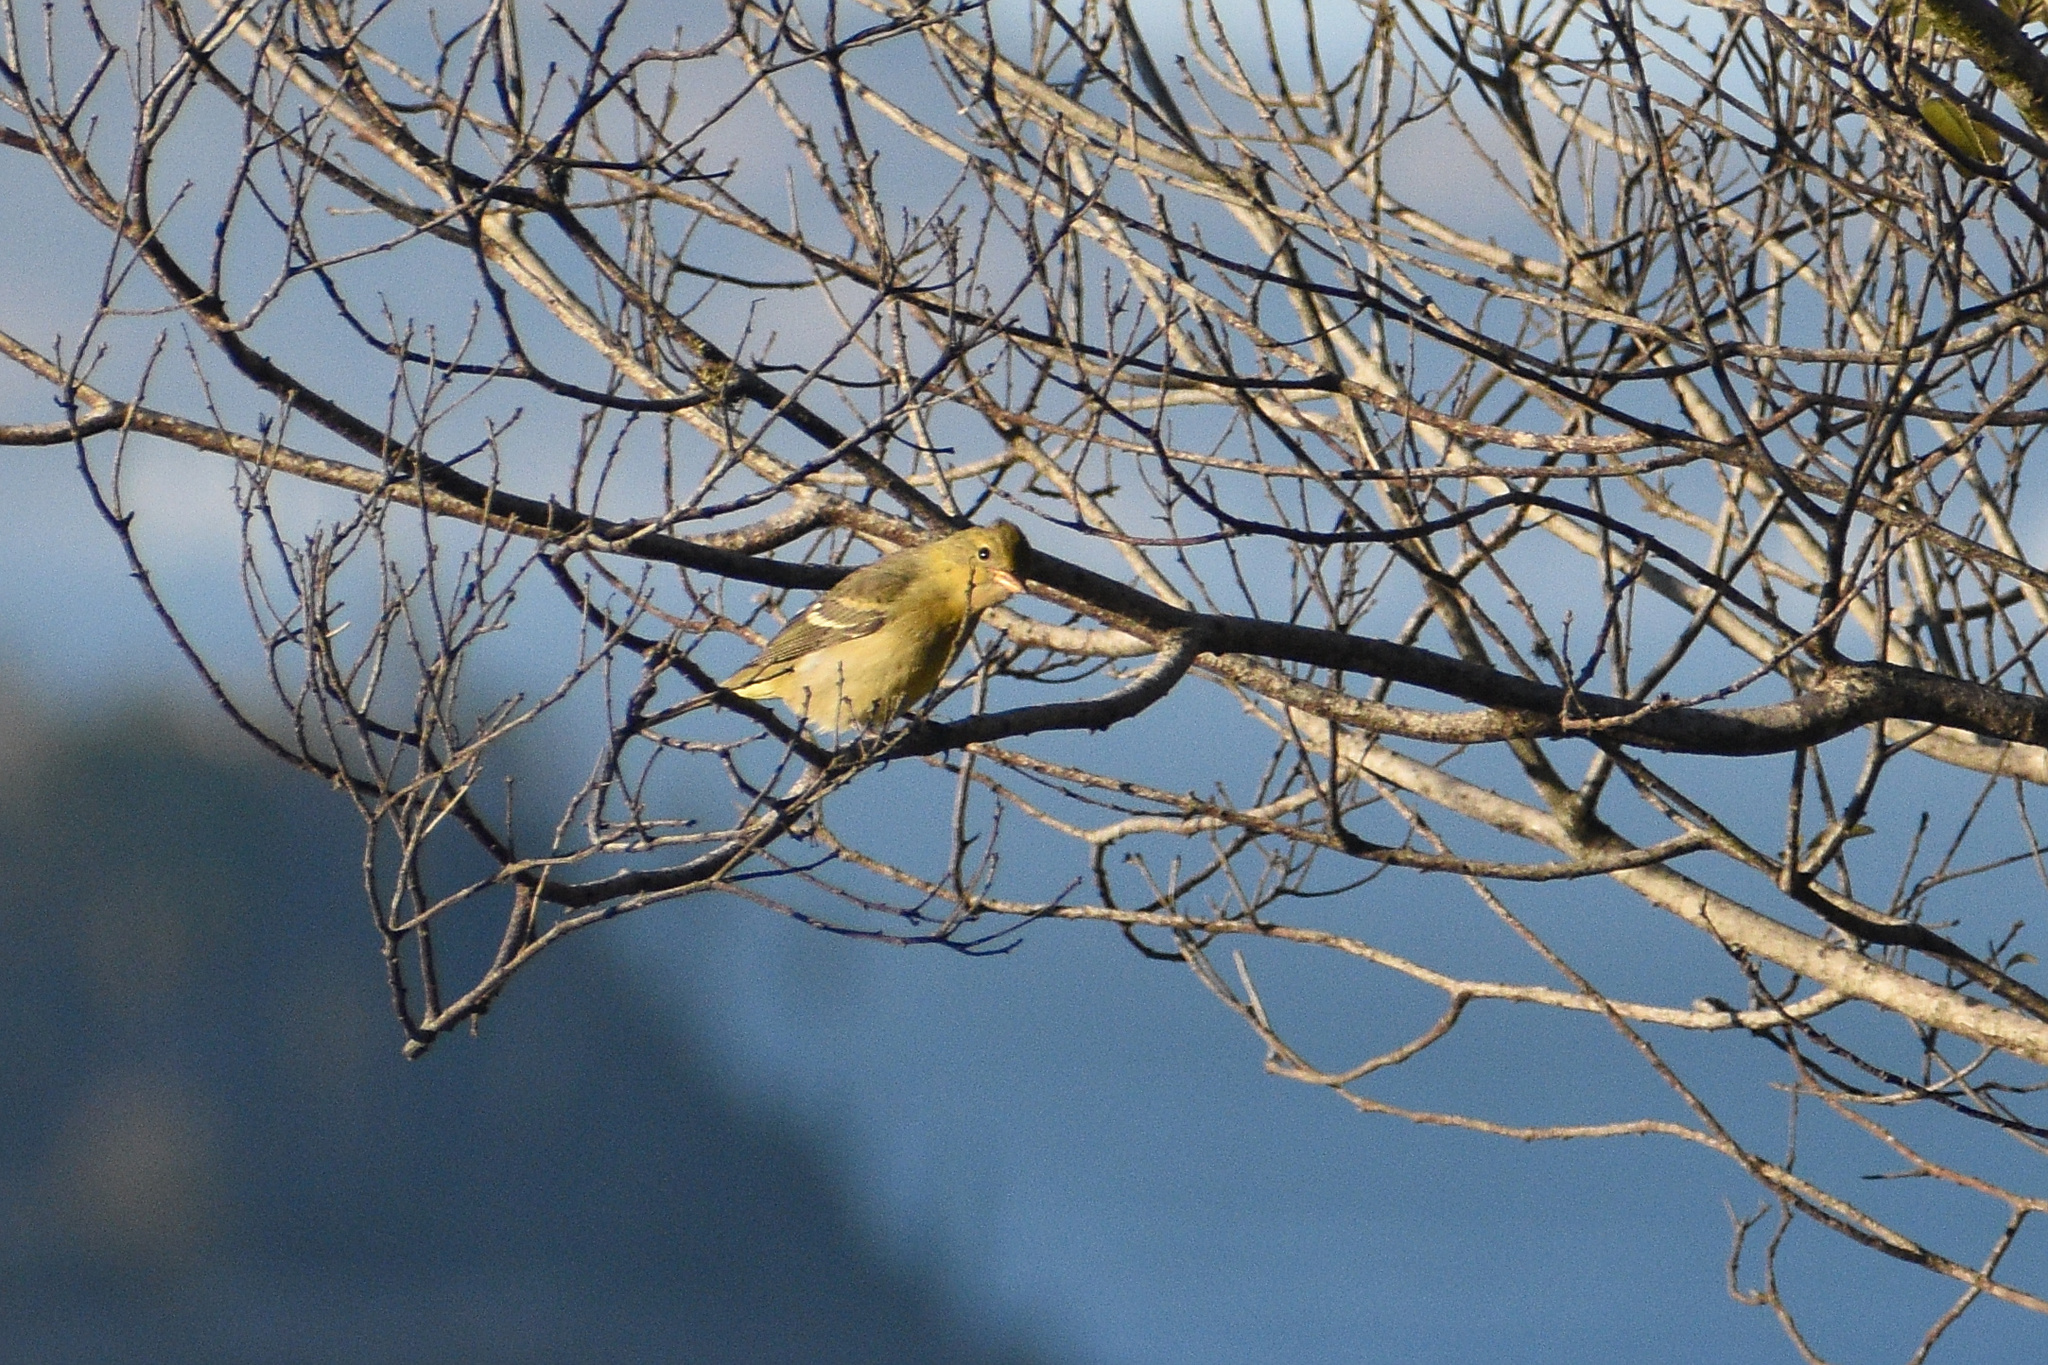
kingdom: Animalia
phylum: Chordata
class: Aves
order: Passeriformes
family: Cardinalidae
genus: Piranga
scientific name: Piranga ludoviciana
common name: Western tanager
